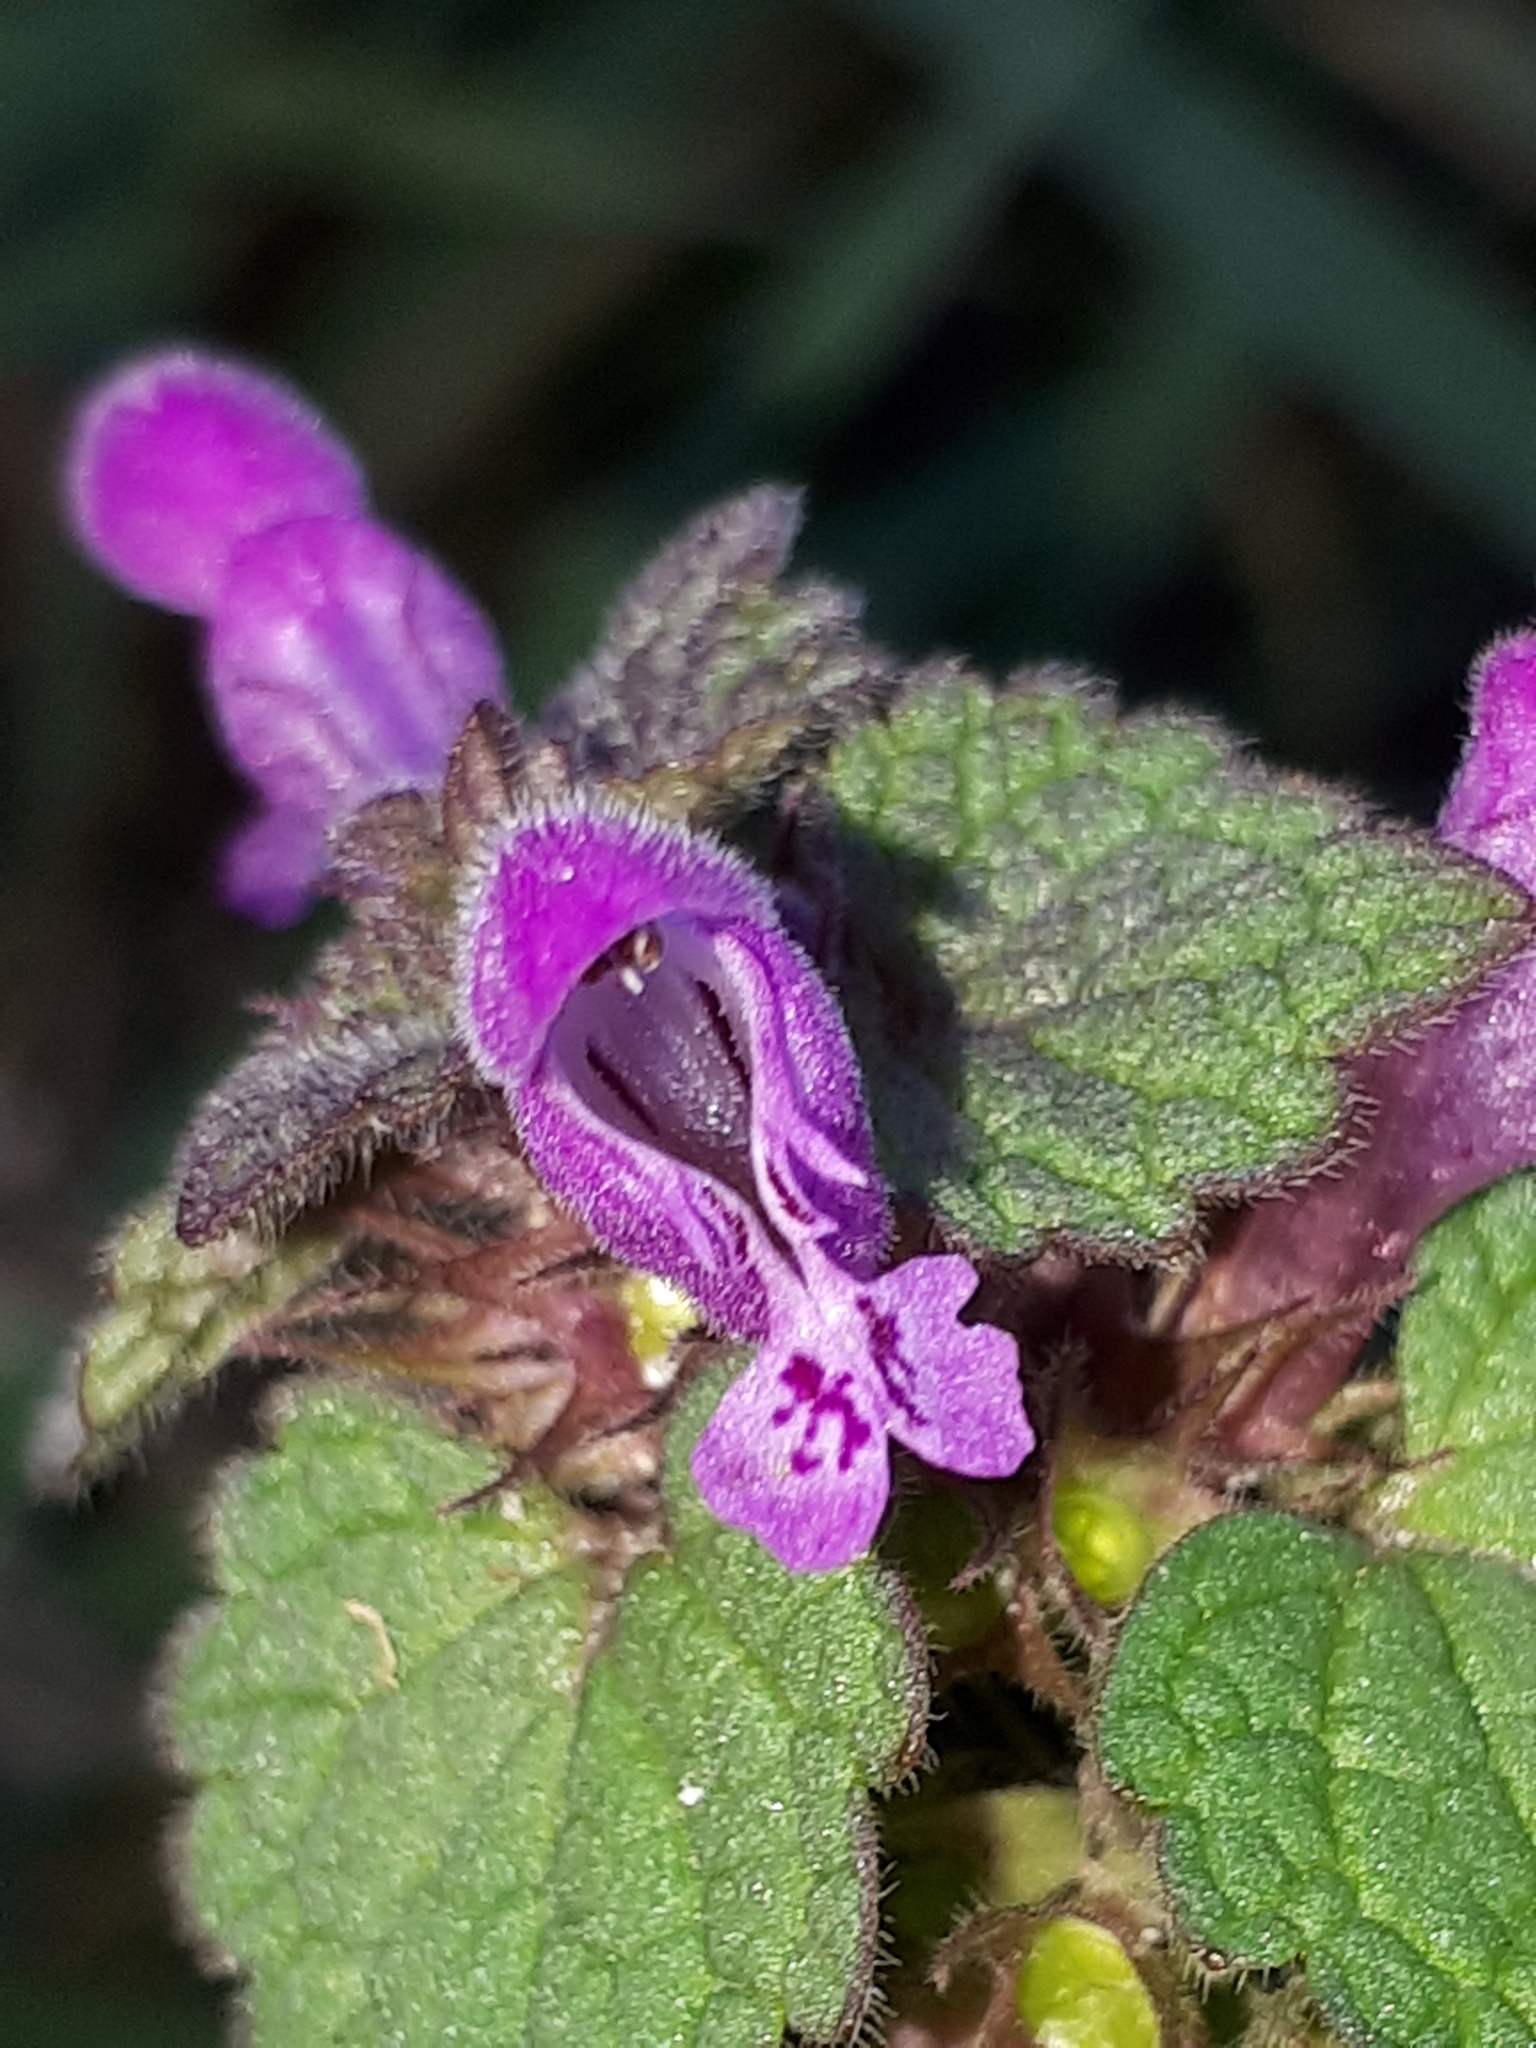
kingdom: Plantae
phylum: Tracheophyta
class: Magnoliopsida
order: Lamiales
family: Lamiaceae
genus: Lamium
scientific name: Lamium purpureum
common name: Red dead-nettle
